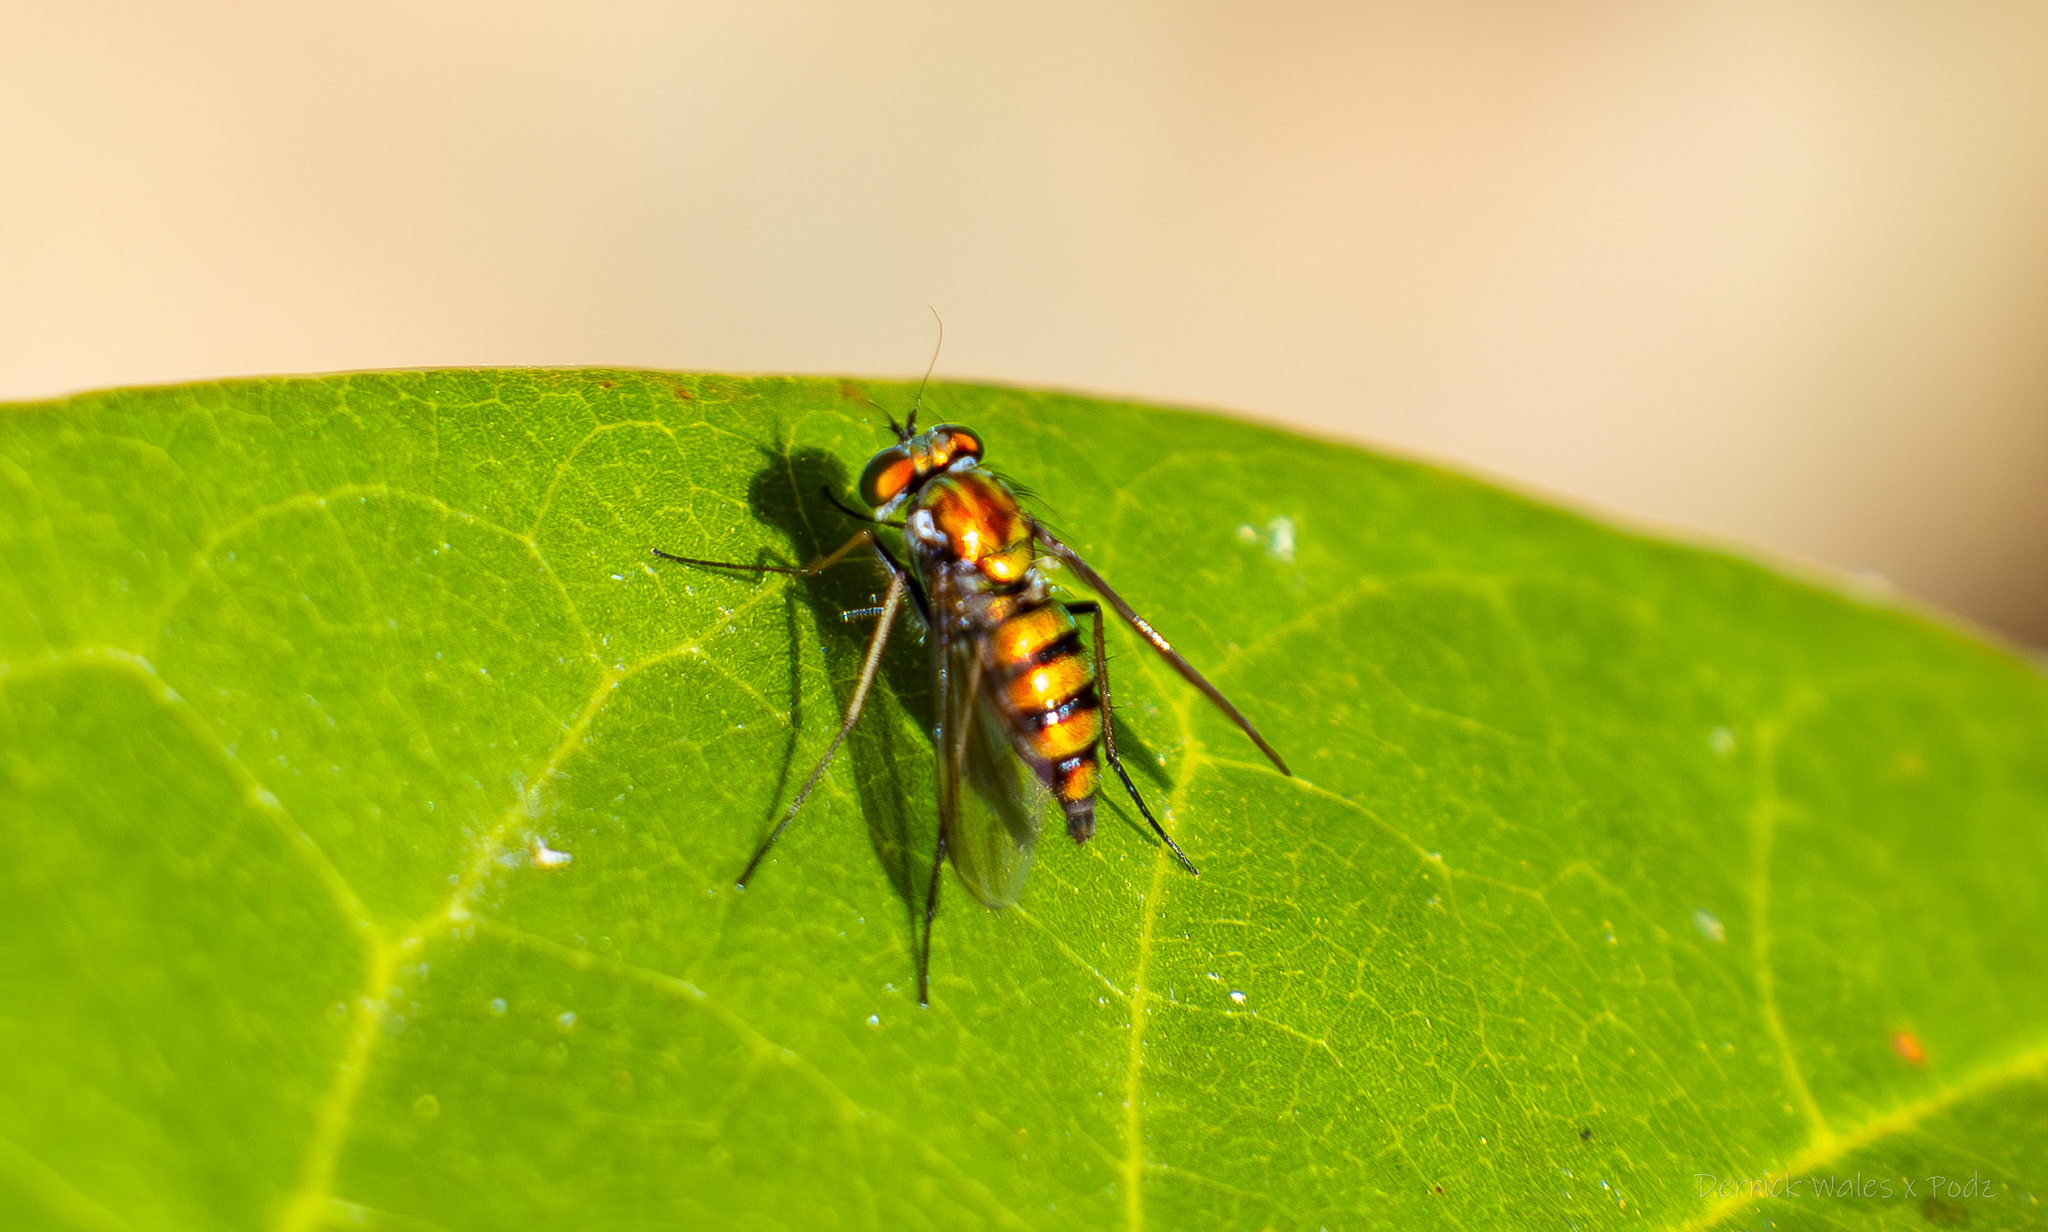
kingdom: Animalia
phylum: Arthropoda
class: Insecta
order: Diptera
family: Dolichopodidae
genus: Condylostylus
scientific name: Condylostylus
